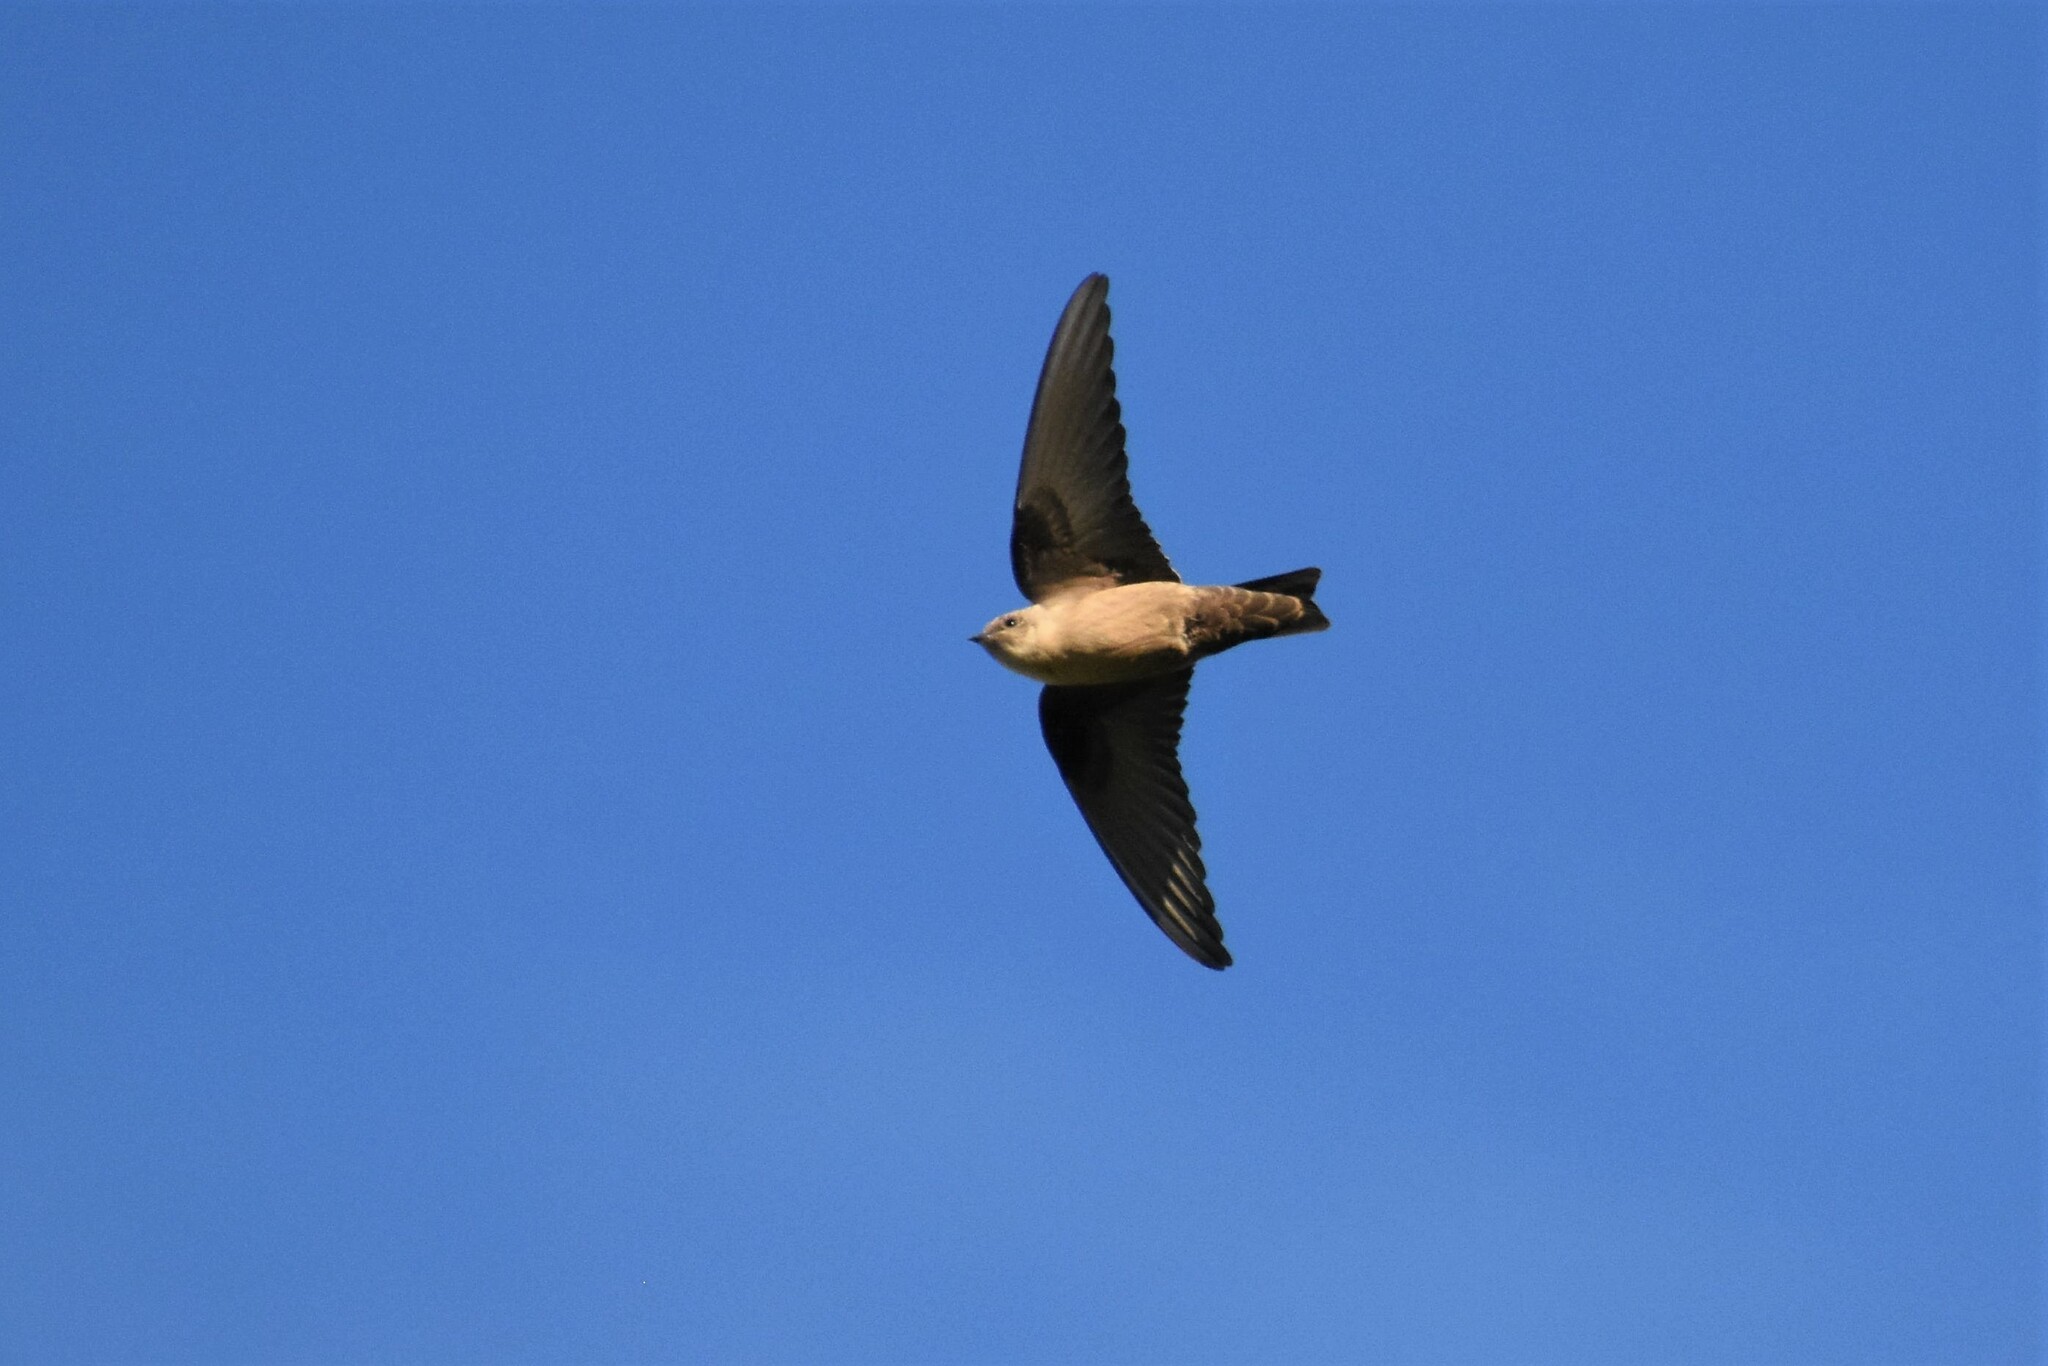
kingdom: Animalia
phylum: Chordata
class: Aves
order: Passeriformes
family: Hirundinidae
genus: Ptyonoprogne
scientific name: Ptyonoprogne rupestris
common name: Eurasian crag martin
